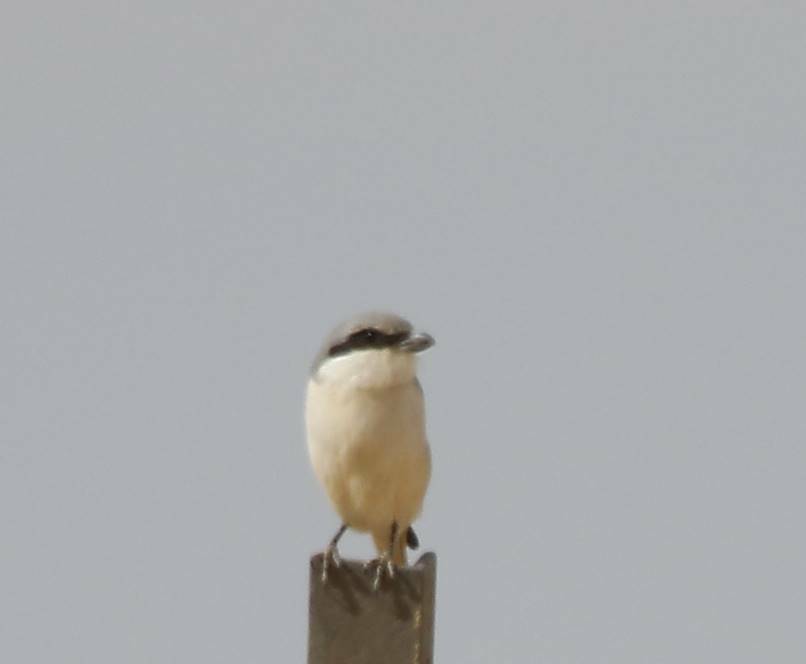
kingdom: Animalia
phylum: Chordata
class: Aves
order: Passeriformes
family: Laniidae
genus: Lanius
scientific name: Lanius excubitor
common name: Great grey shrike
